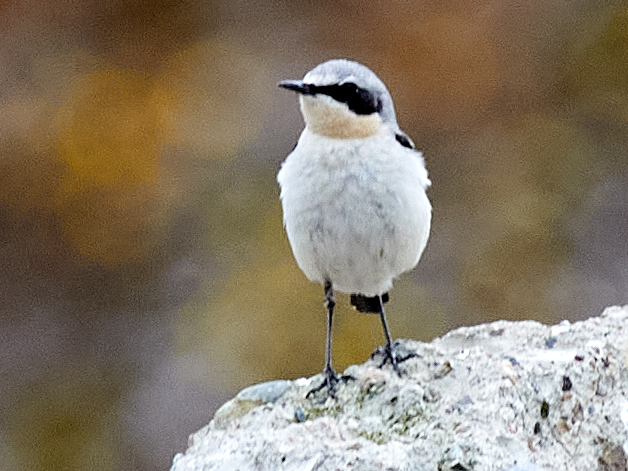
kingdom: Animalia
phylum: Chordata
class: Aves
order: Passeriformes
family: Muscicapidae
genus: Oenanthe
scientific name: Oenanthe oenanthe
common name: Northern wheatear
